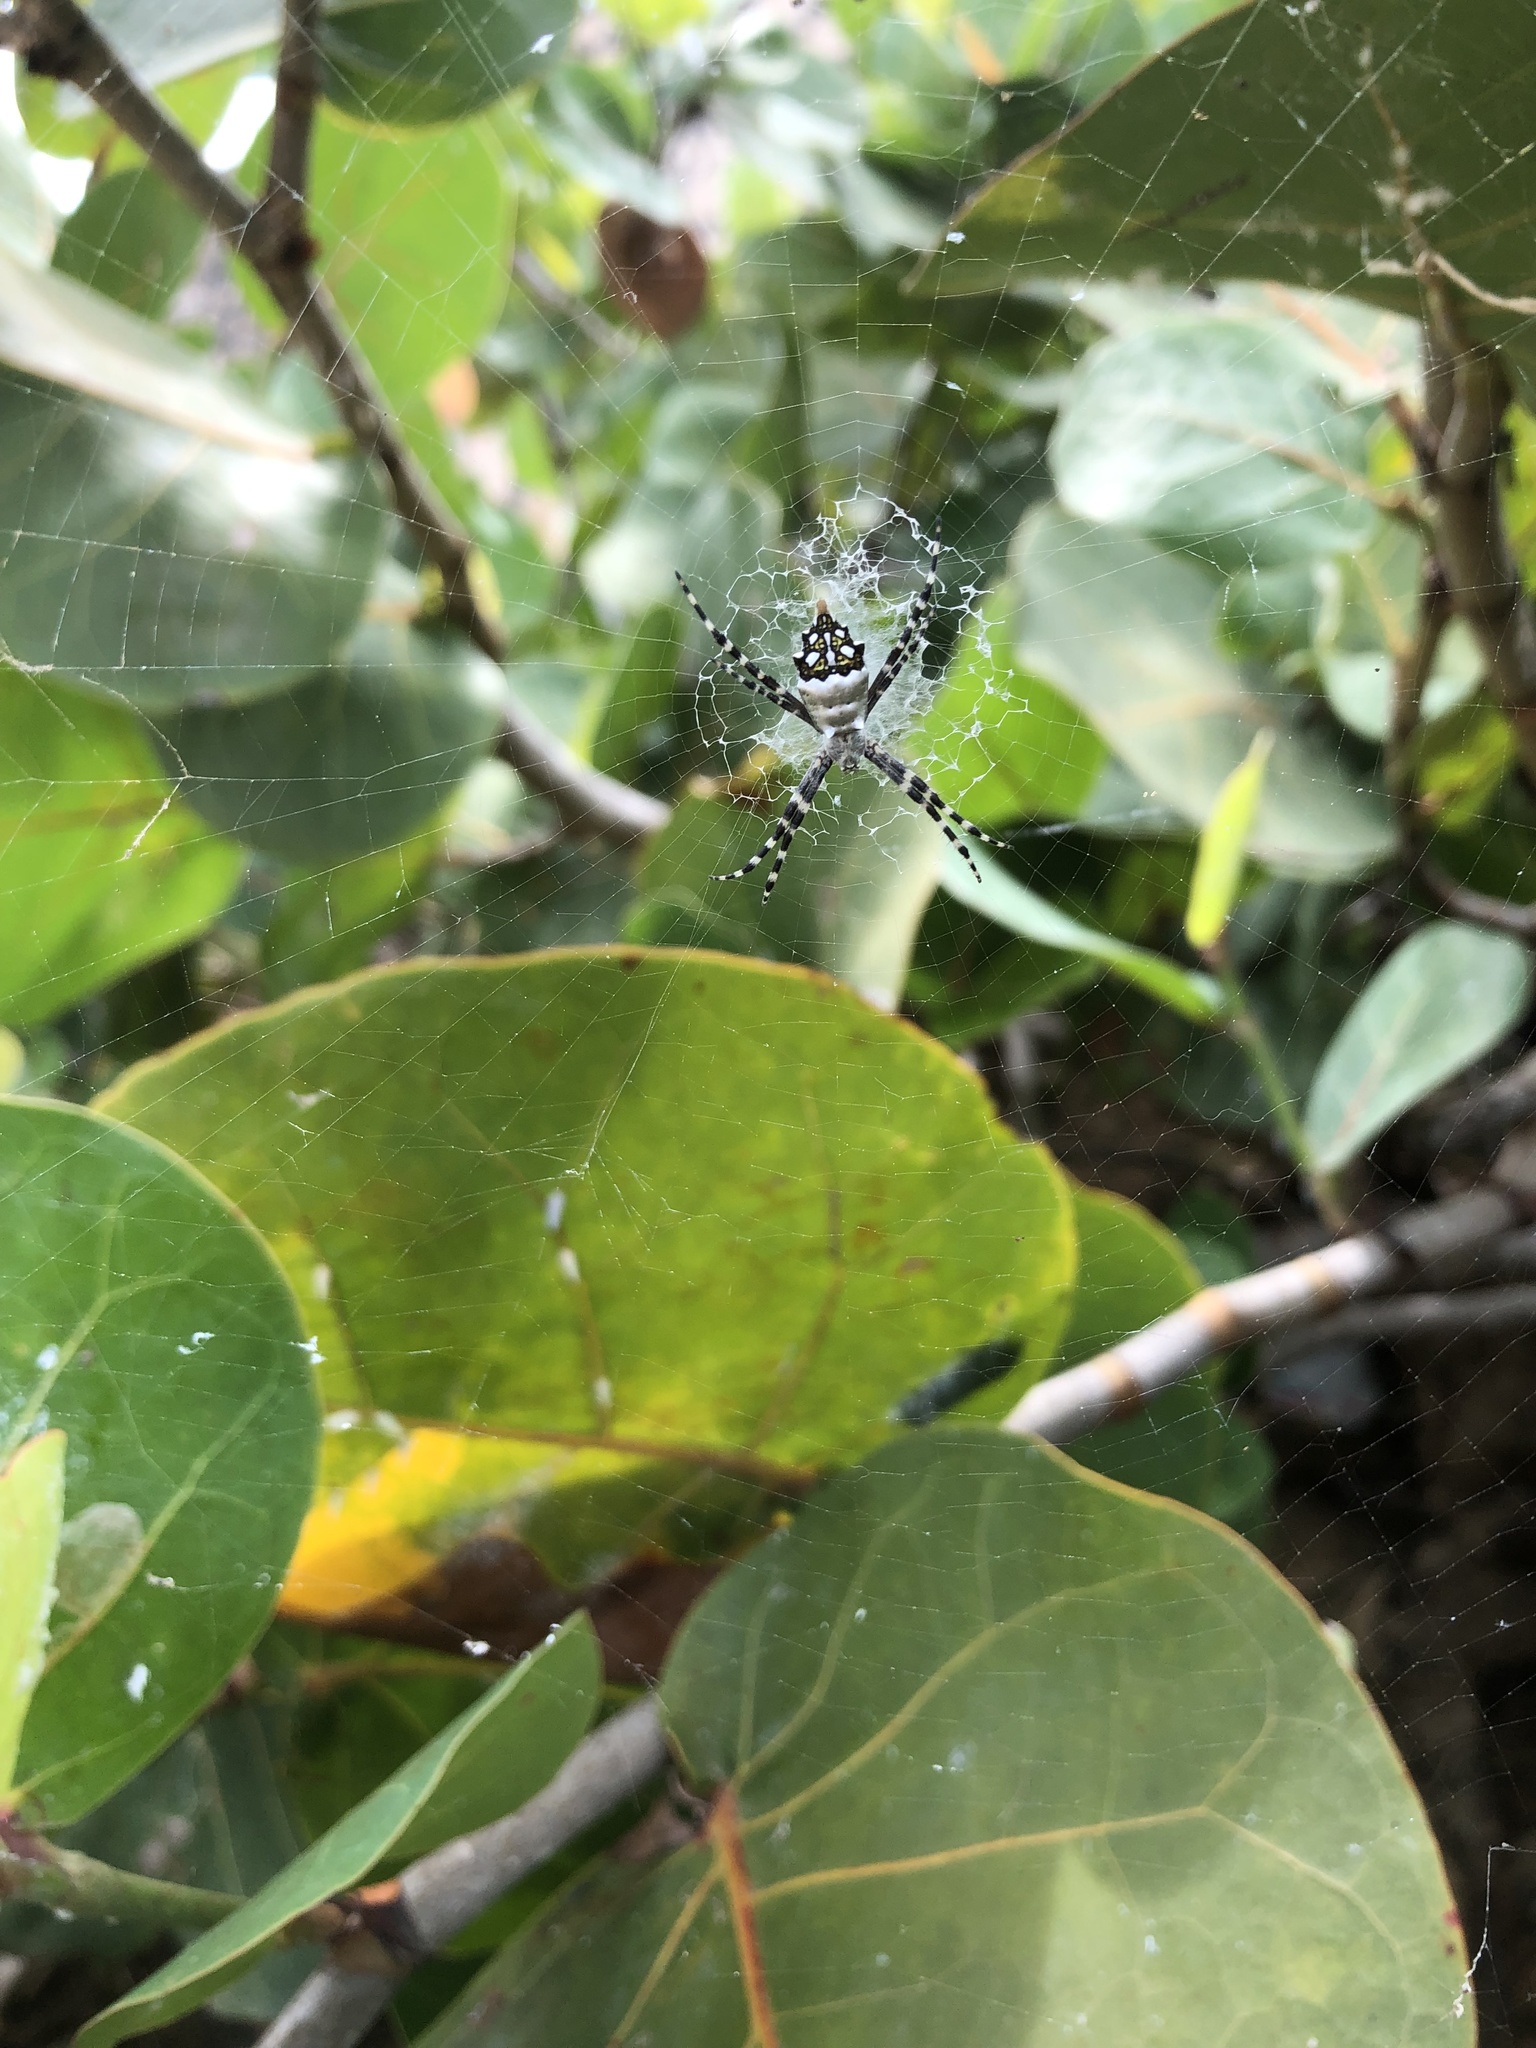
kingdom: Animalia
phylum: Arthropoda
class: Arachnida
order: Araneae
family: Araneidae
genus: Argiope
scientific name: Argiope argentata
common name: Orb weavers
